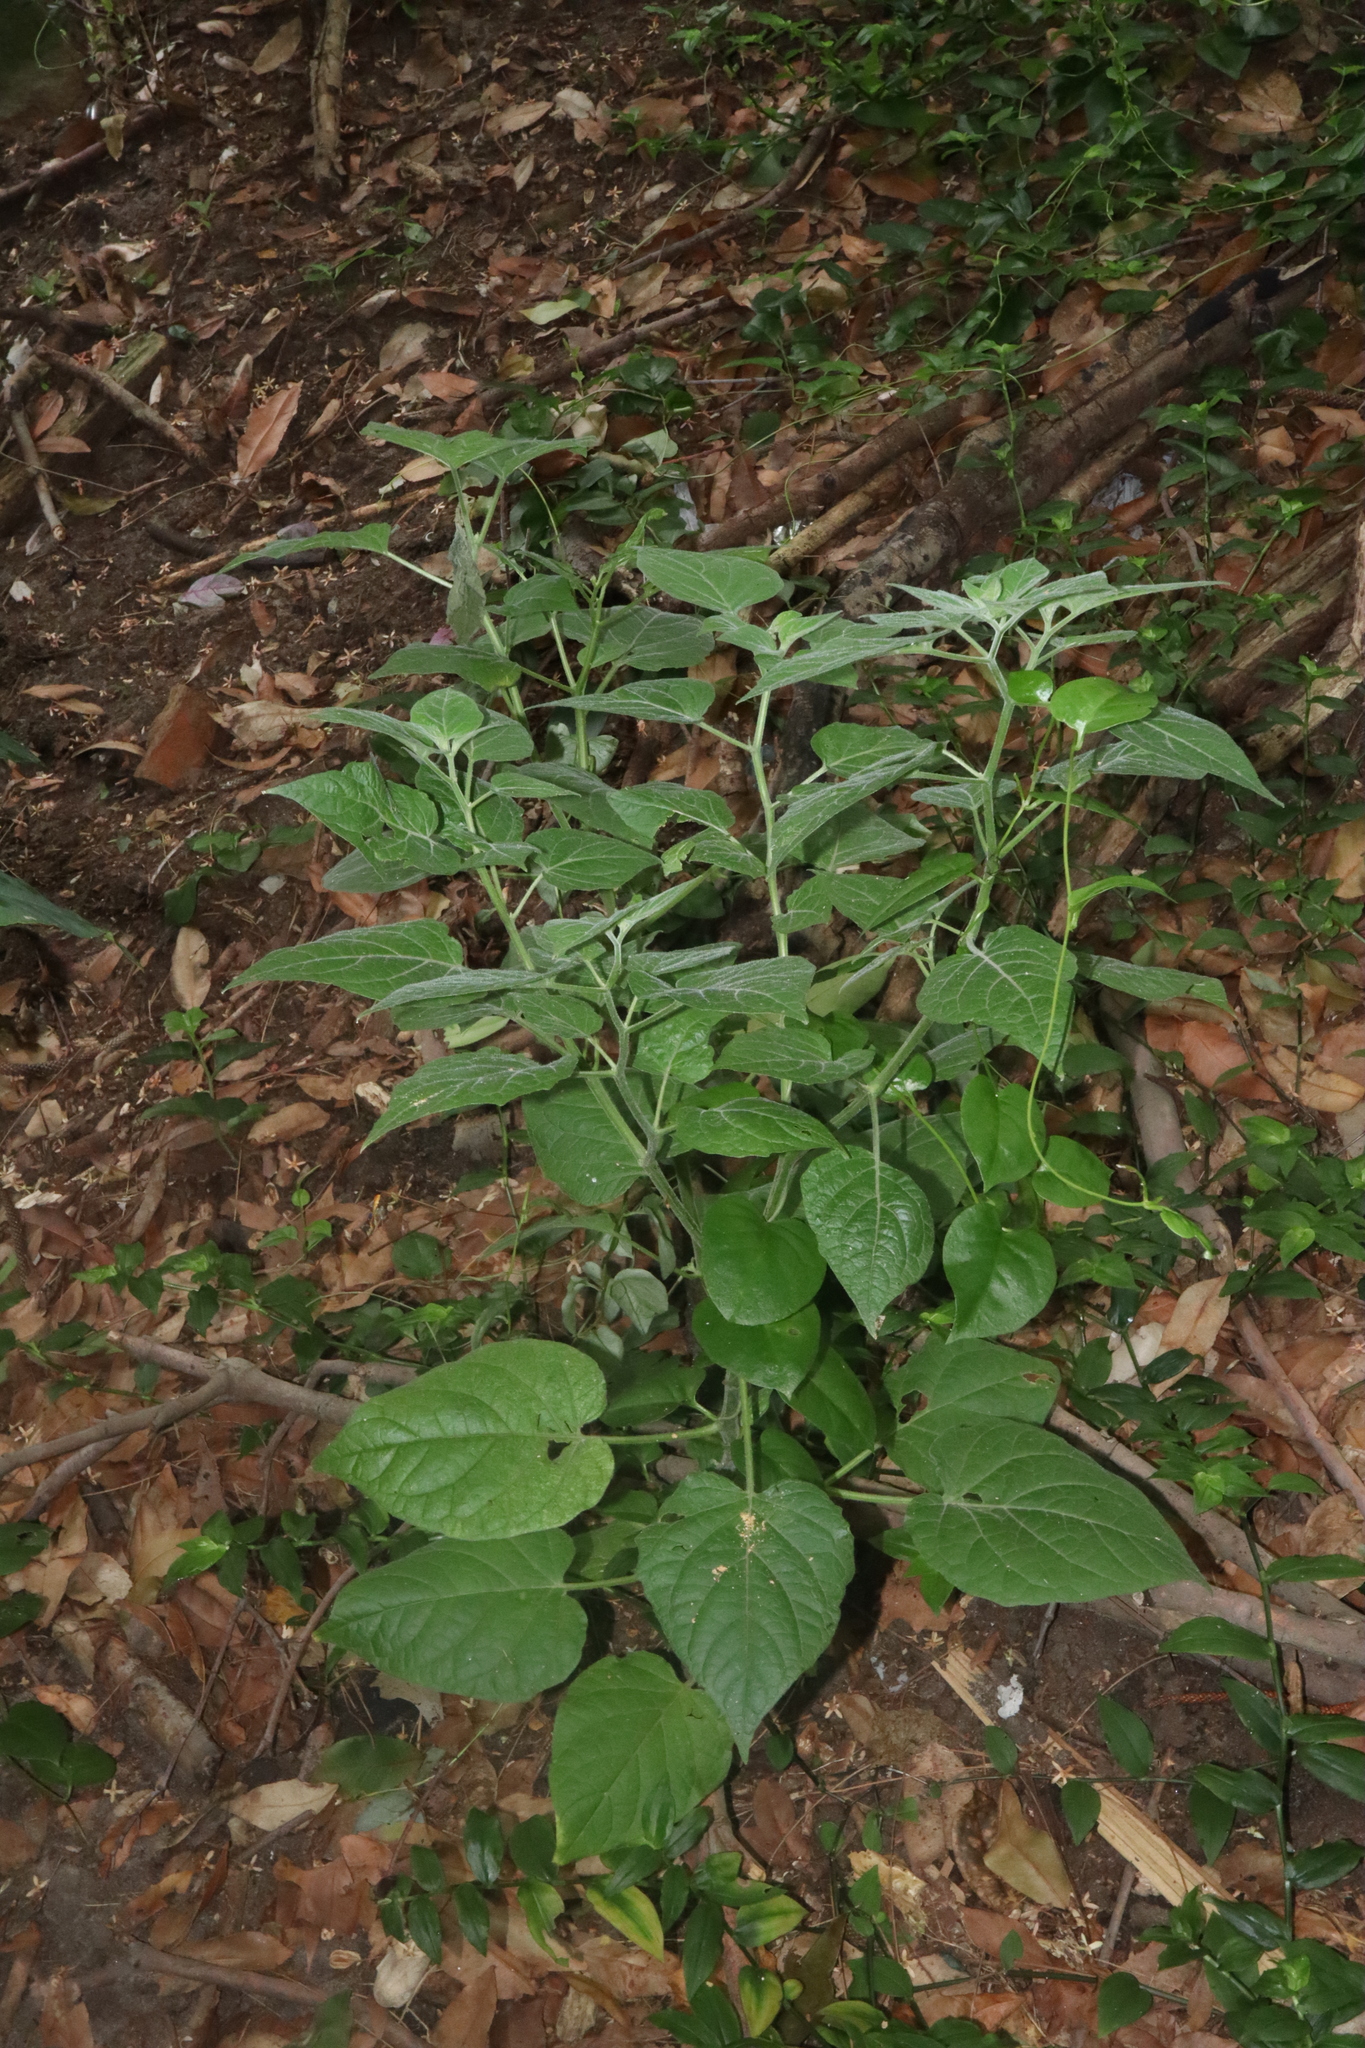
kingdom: Plantae
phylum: Tracheophyta
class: Magnoliopsida
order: Solanales
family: Solanaceae
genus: Physalis
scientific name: Physalis peruviana
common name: Cape-gooseberry
